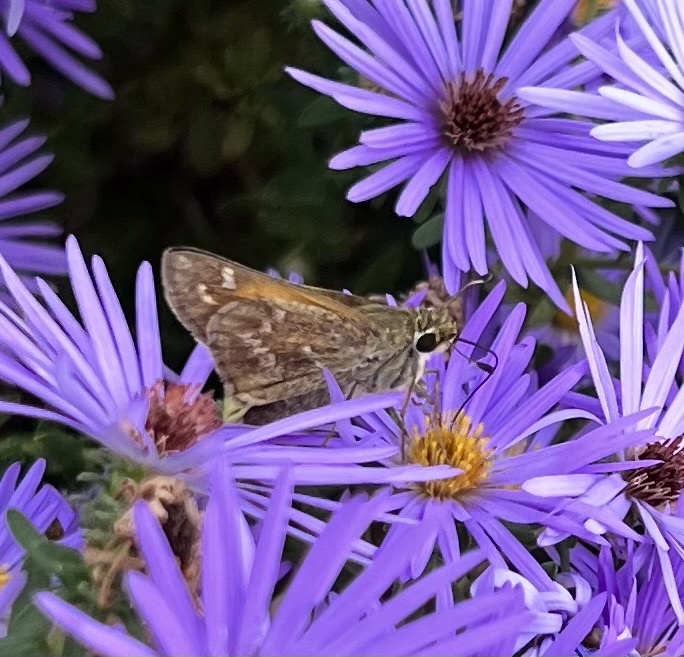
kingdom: Animalia
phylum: Arthropoda
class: Insecta
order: Lepidoptera
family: Hesperiidae
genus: Atalopedes
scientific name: Atalopedes
